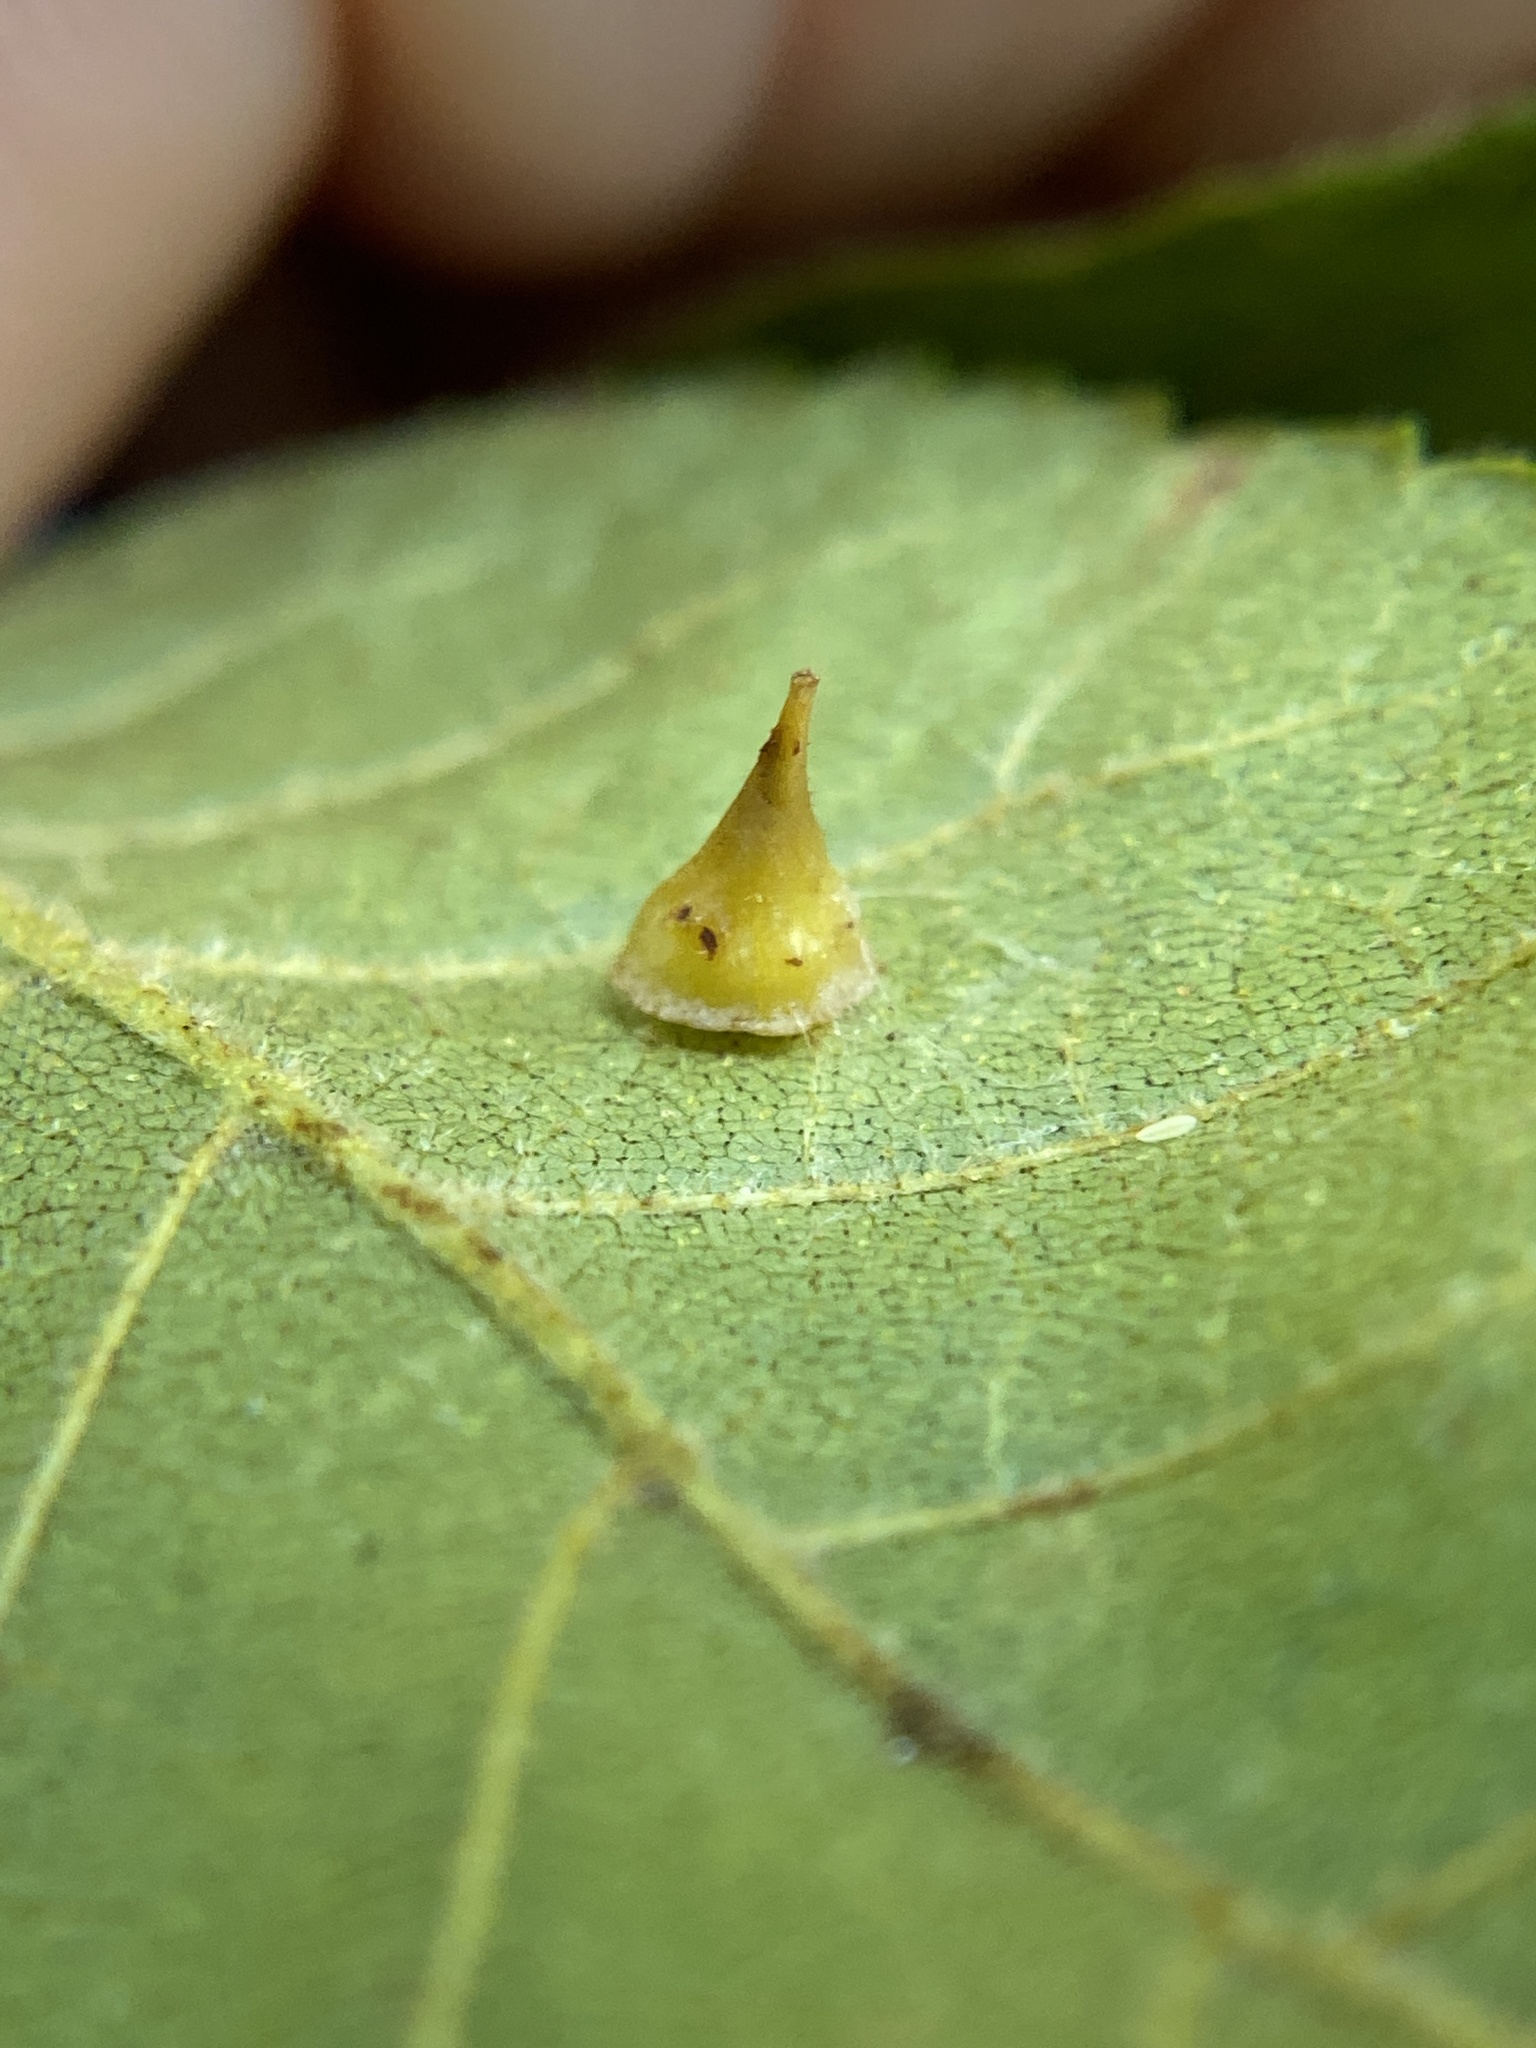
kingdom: Animalia
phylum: Arthropoda
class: Insecta
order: Diptera
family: Cecidomyiidae
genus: Caryomyia
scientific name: Caryomyia sanguinolenta
